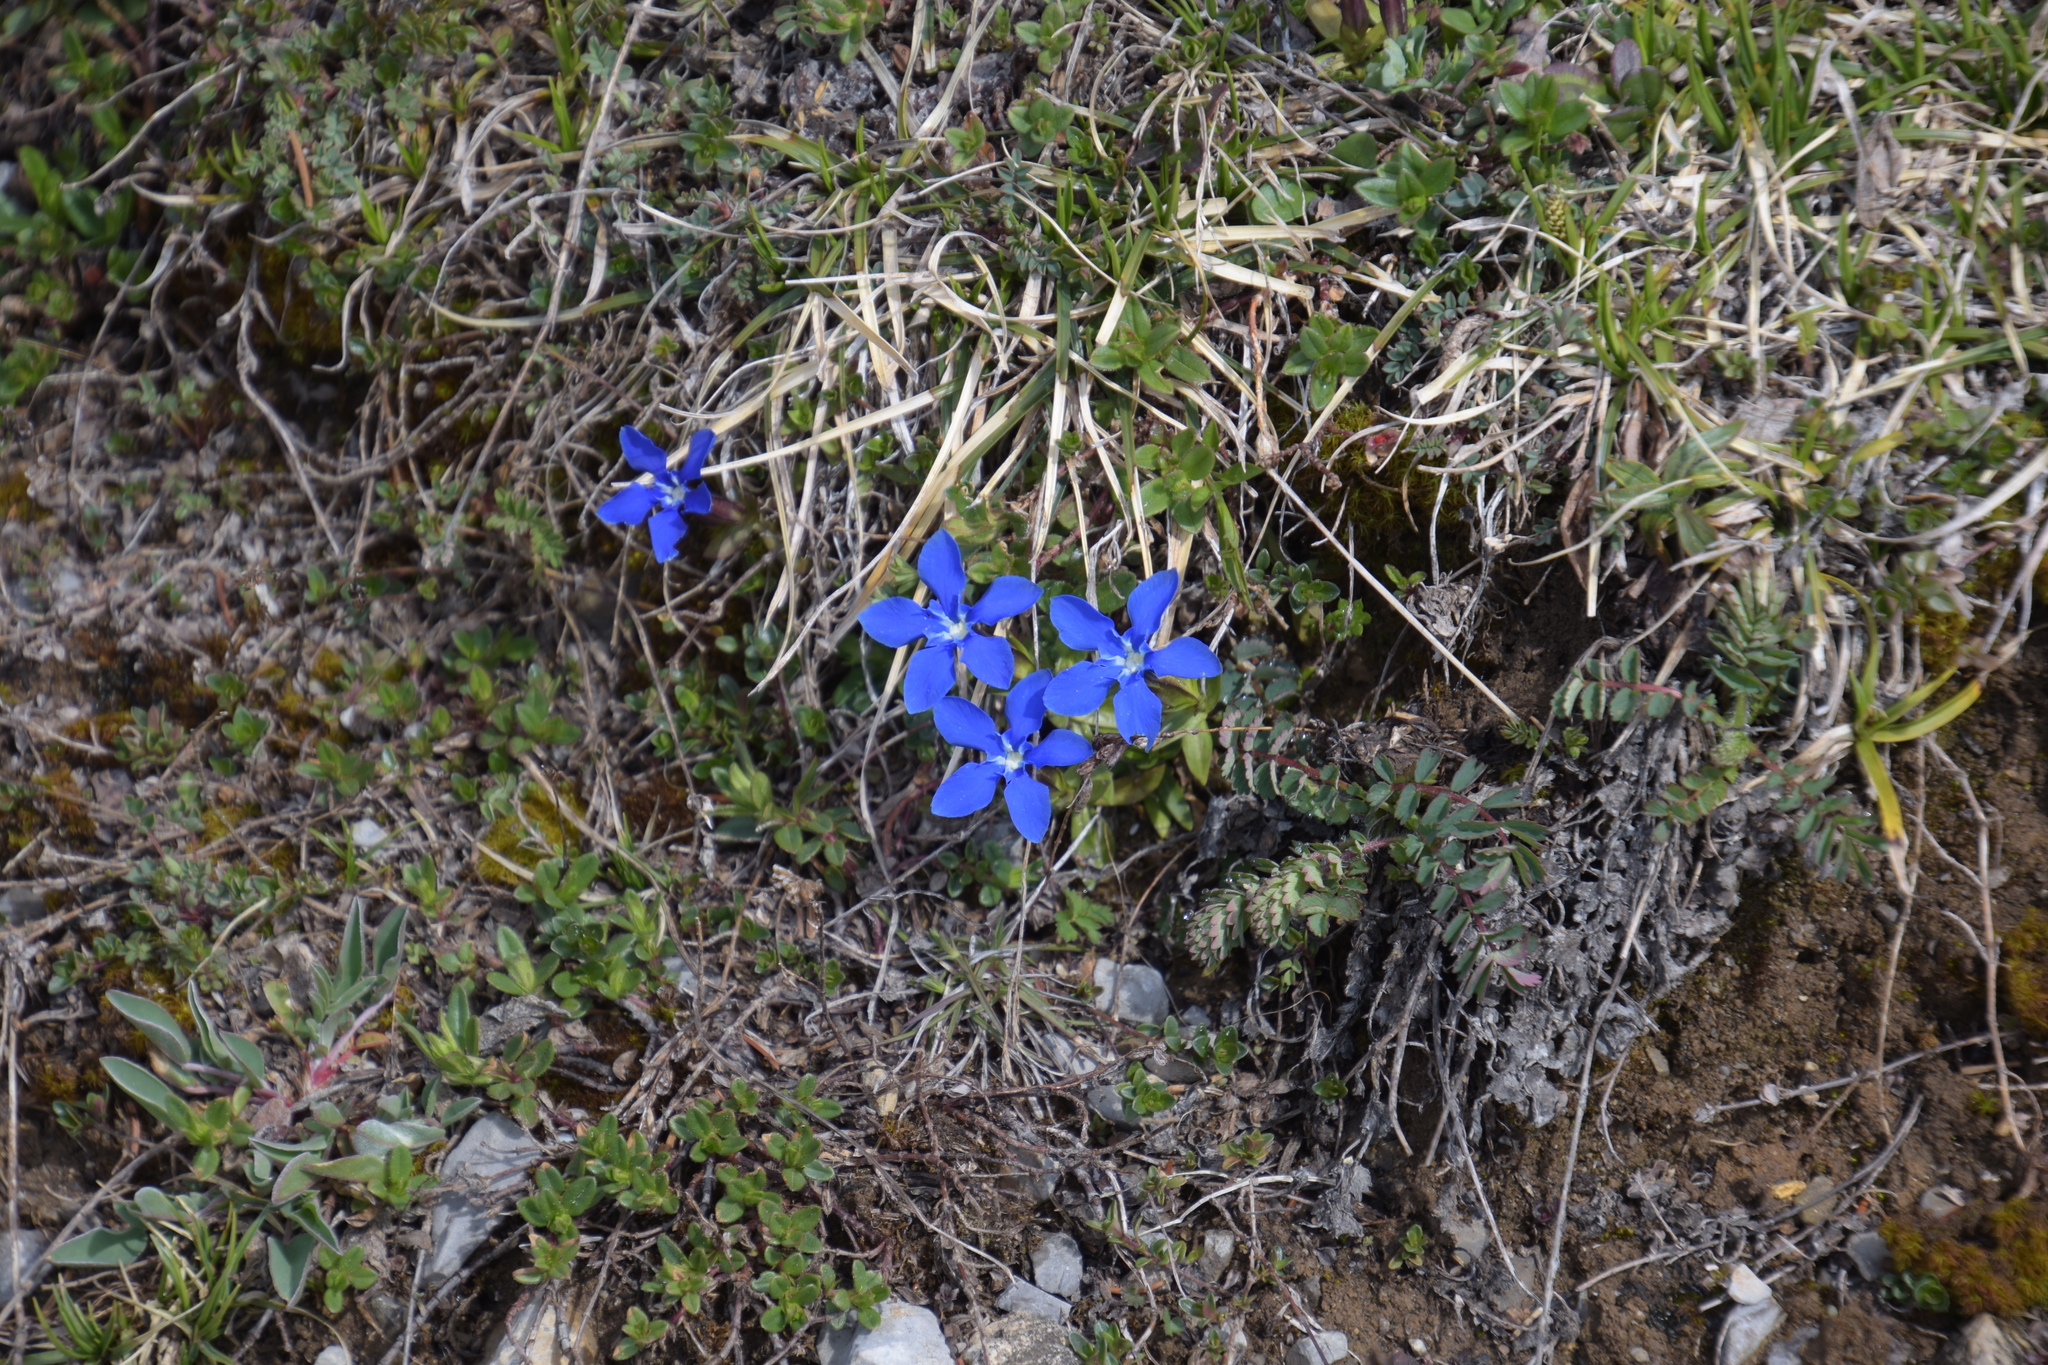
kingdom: Plantae
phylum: Tracheophyta
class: Magnoliopsida
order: Gentianales
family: Gentianaceae
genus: Gentiana
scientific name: Gentiana verna
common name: Spring gentian
